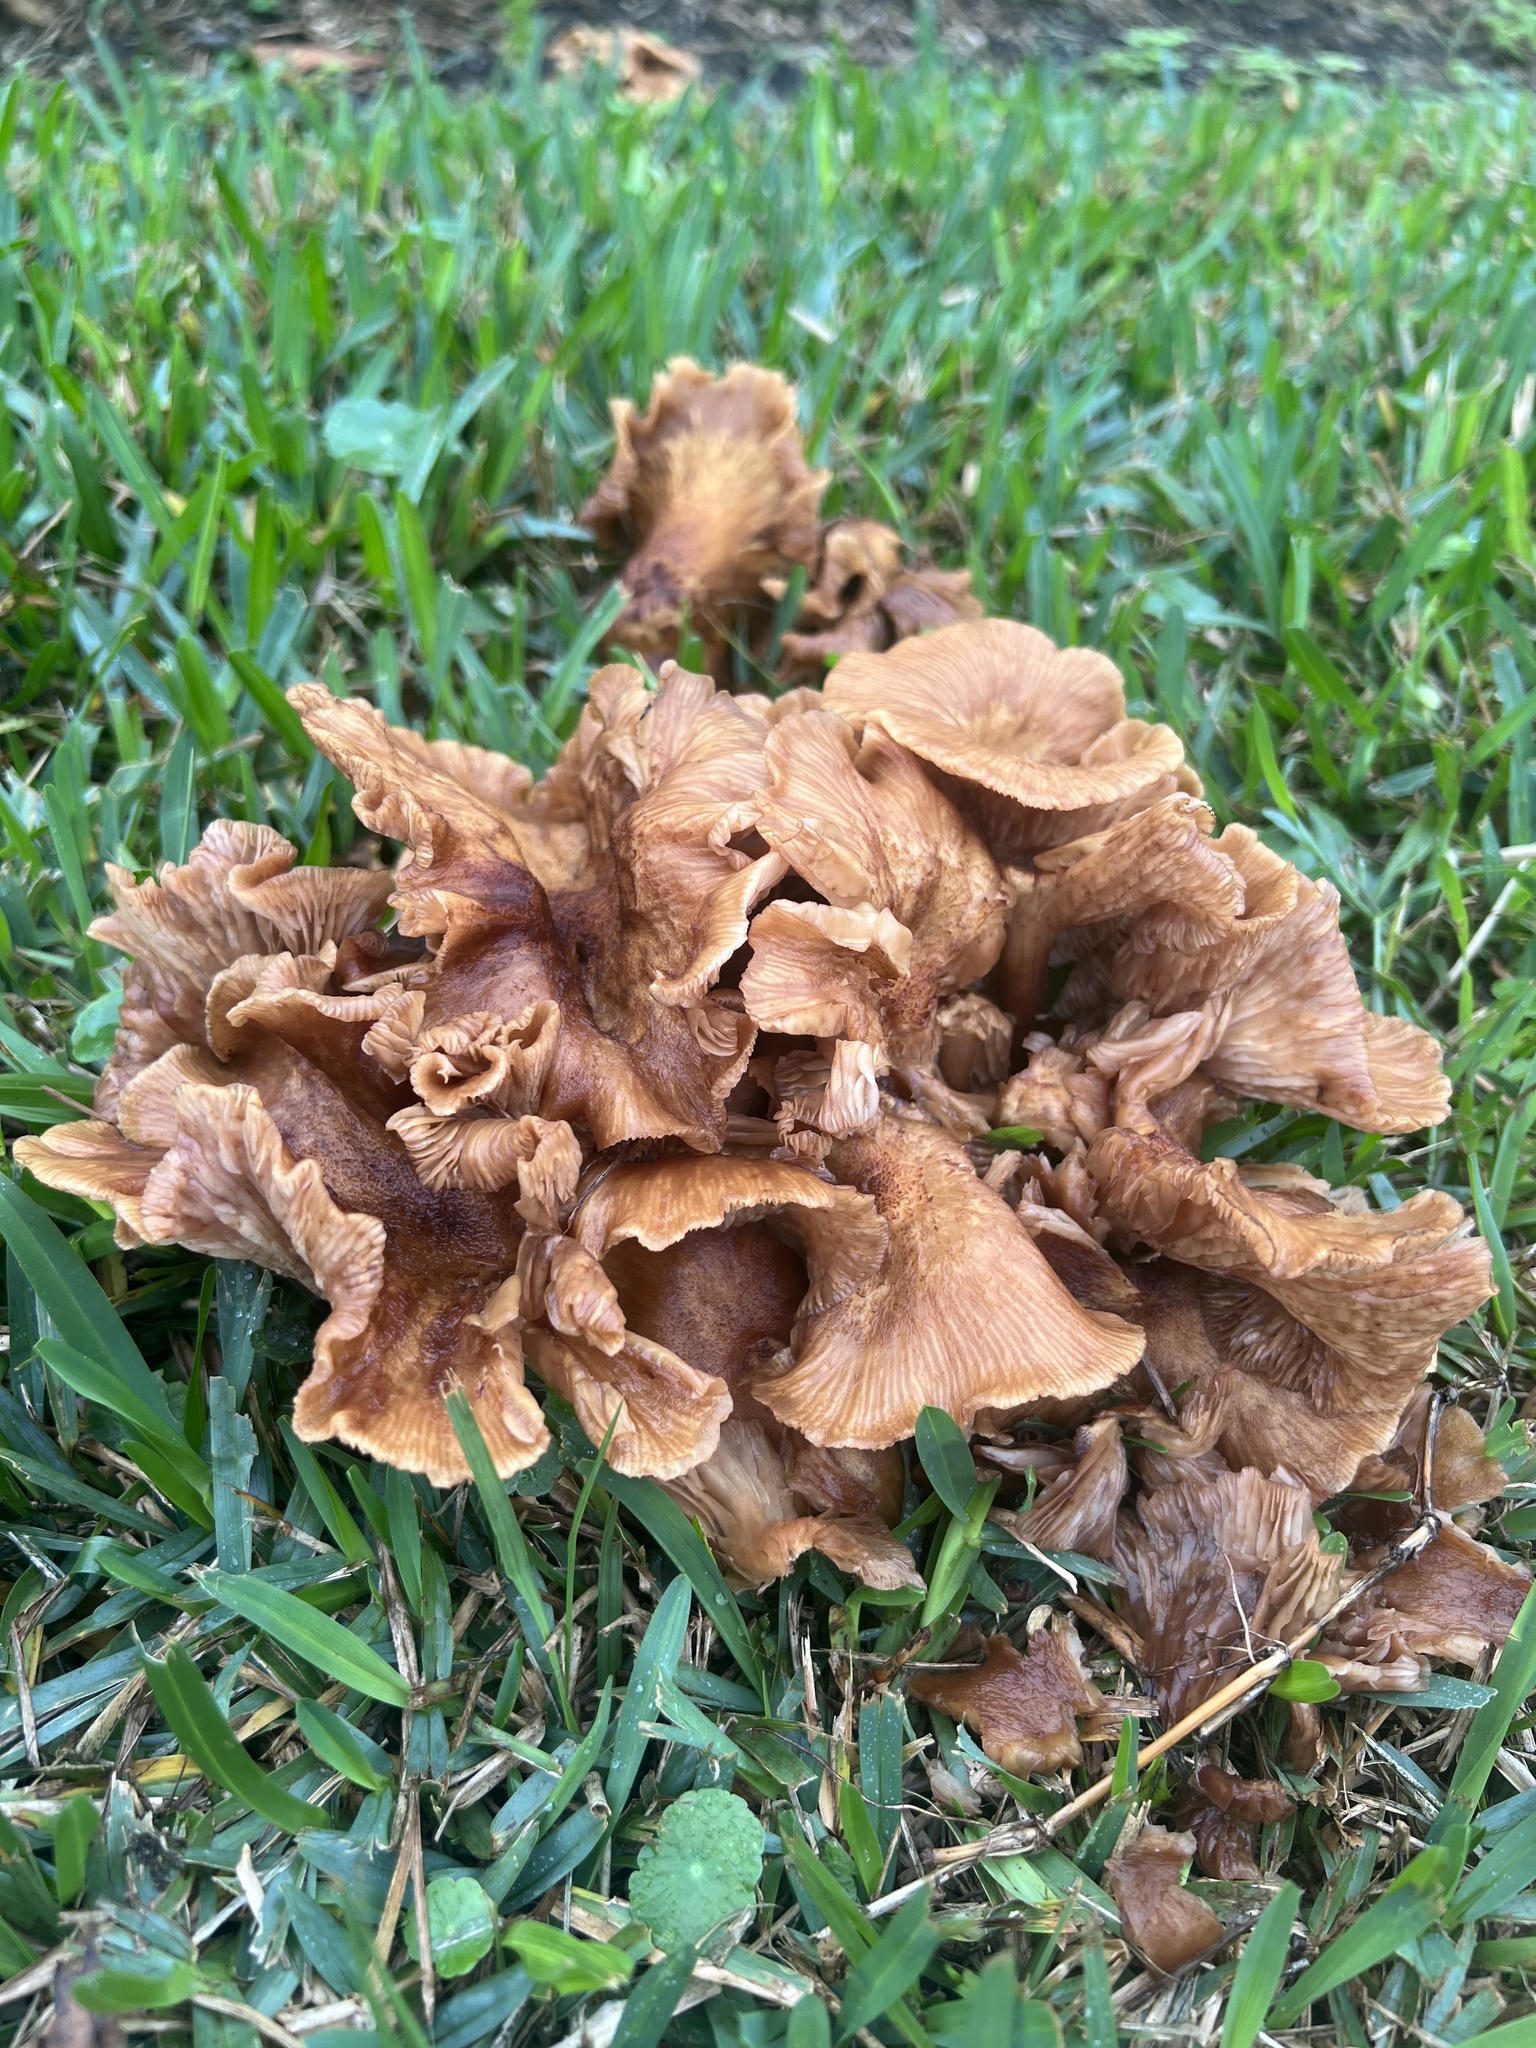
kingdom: Fungi
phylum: Basidiomycota
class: Agaricomycetes
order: Agaricales
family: Physalacriaceae
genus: Desarmillaria
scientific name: Desarmillaria caespitosa
